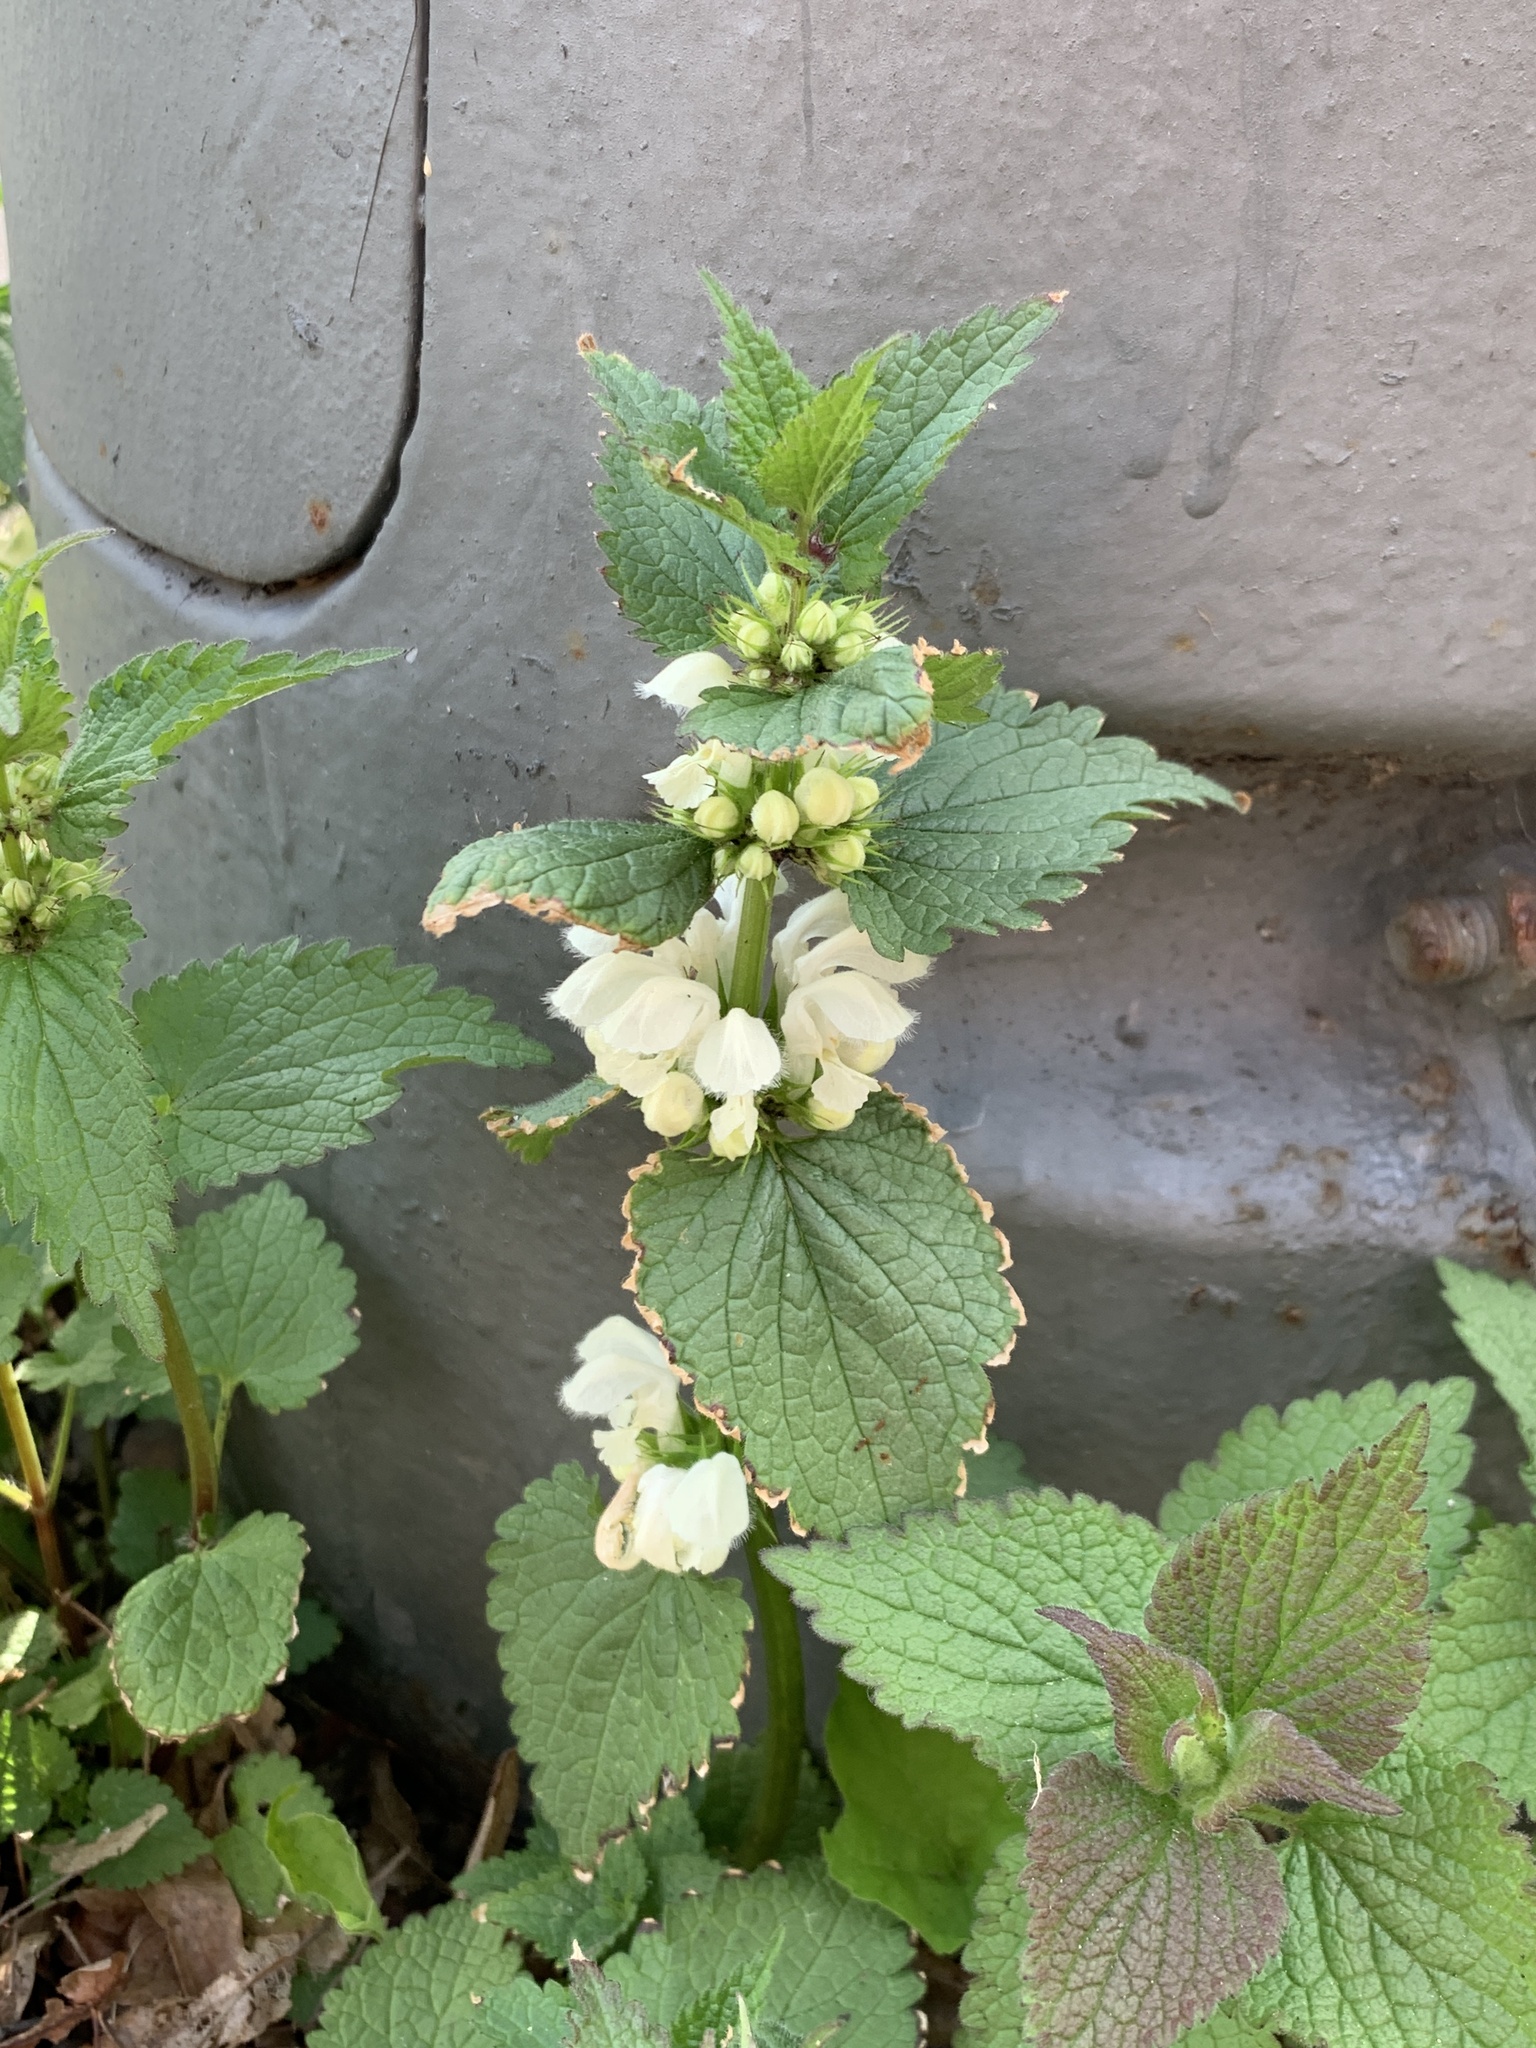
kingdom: Plantae
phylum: Tracheophyta
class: Magnoliopsida
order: Lamiales
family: Lamiaceae
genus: Lamium
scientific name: Lamium album
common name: White dead-nettle
